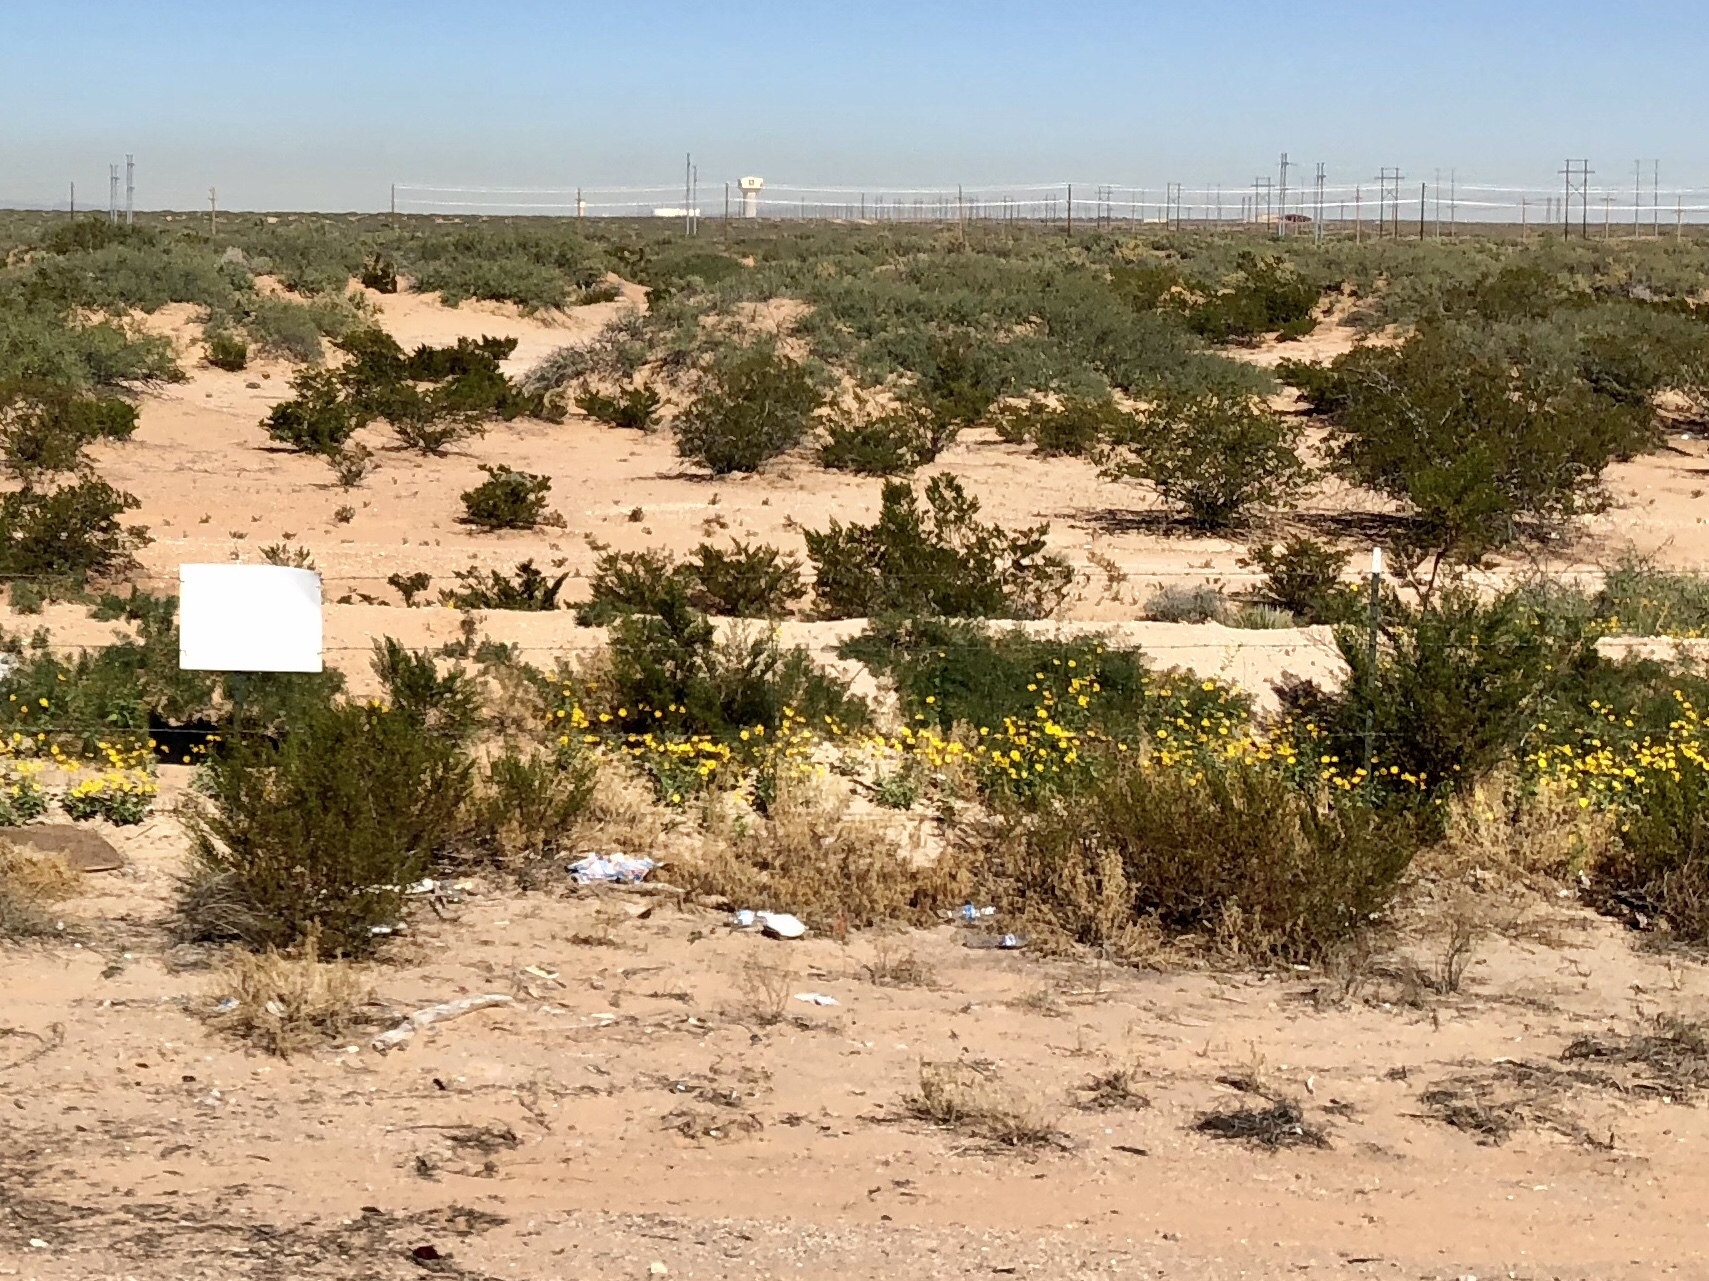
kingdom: Plantae
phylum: Tracheophyta
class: Magnoliopsida
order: Zygophyllales
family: Zygophyllaceae
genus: Larrea
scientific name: Larrea tridentata
